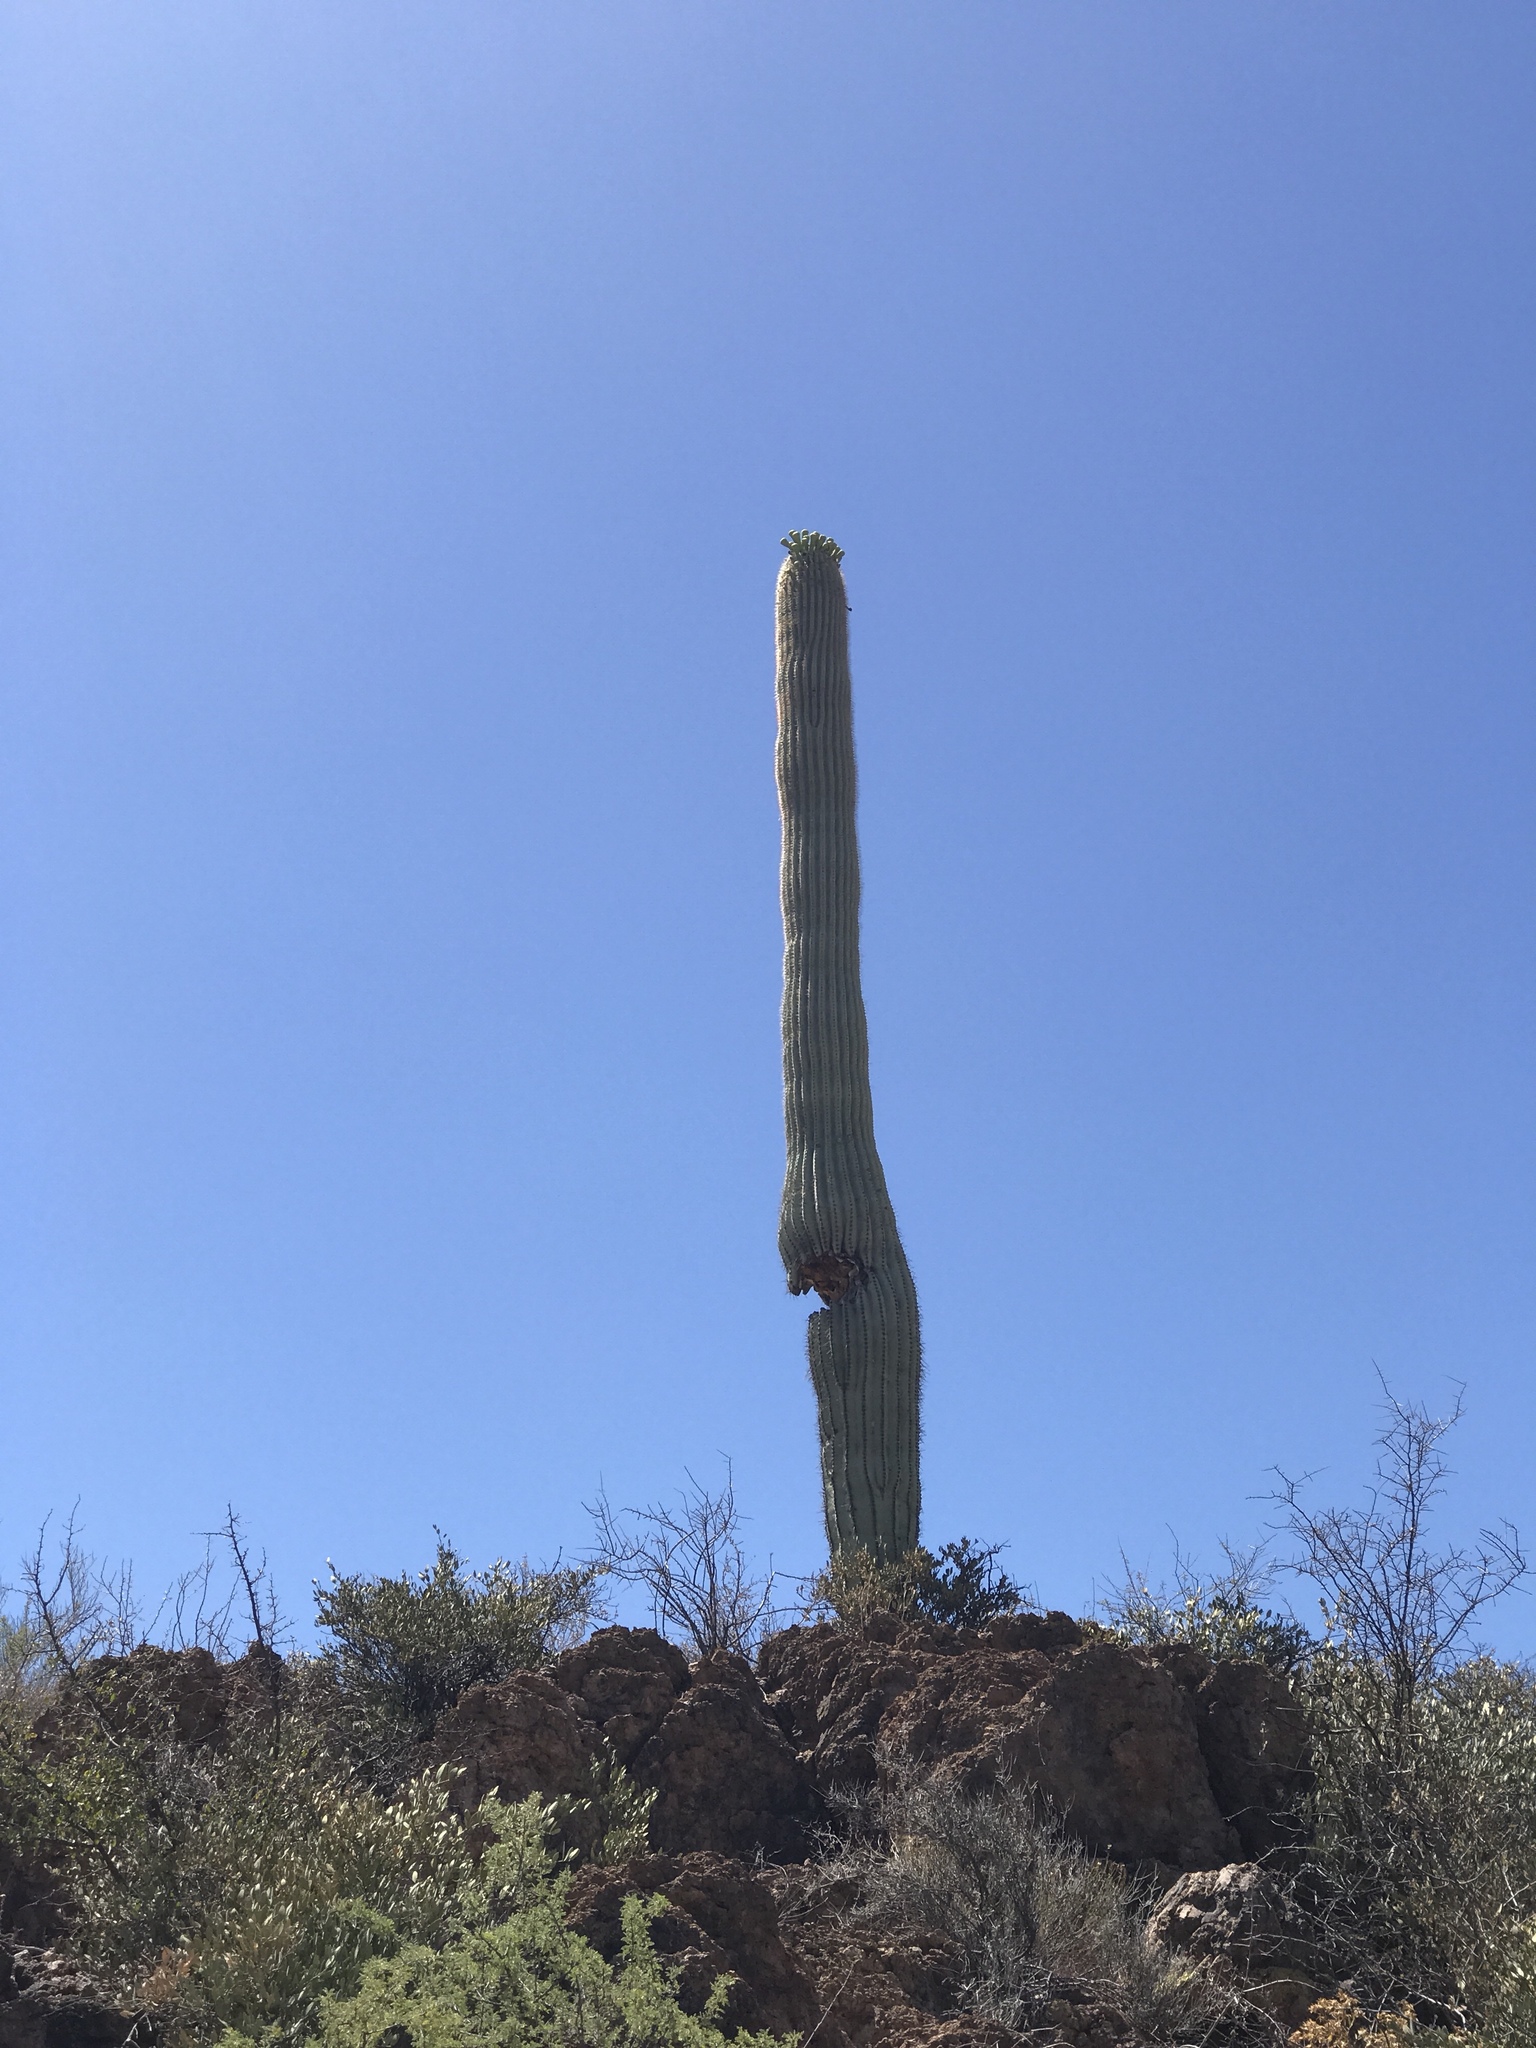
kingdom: Plantae
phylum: Tracheophyta
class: Magnoliopsida
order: Caryophyllales
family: Cactaceae
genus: Carnegiea
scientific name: Carnegiea gigantea
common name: Saguaro
